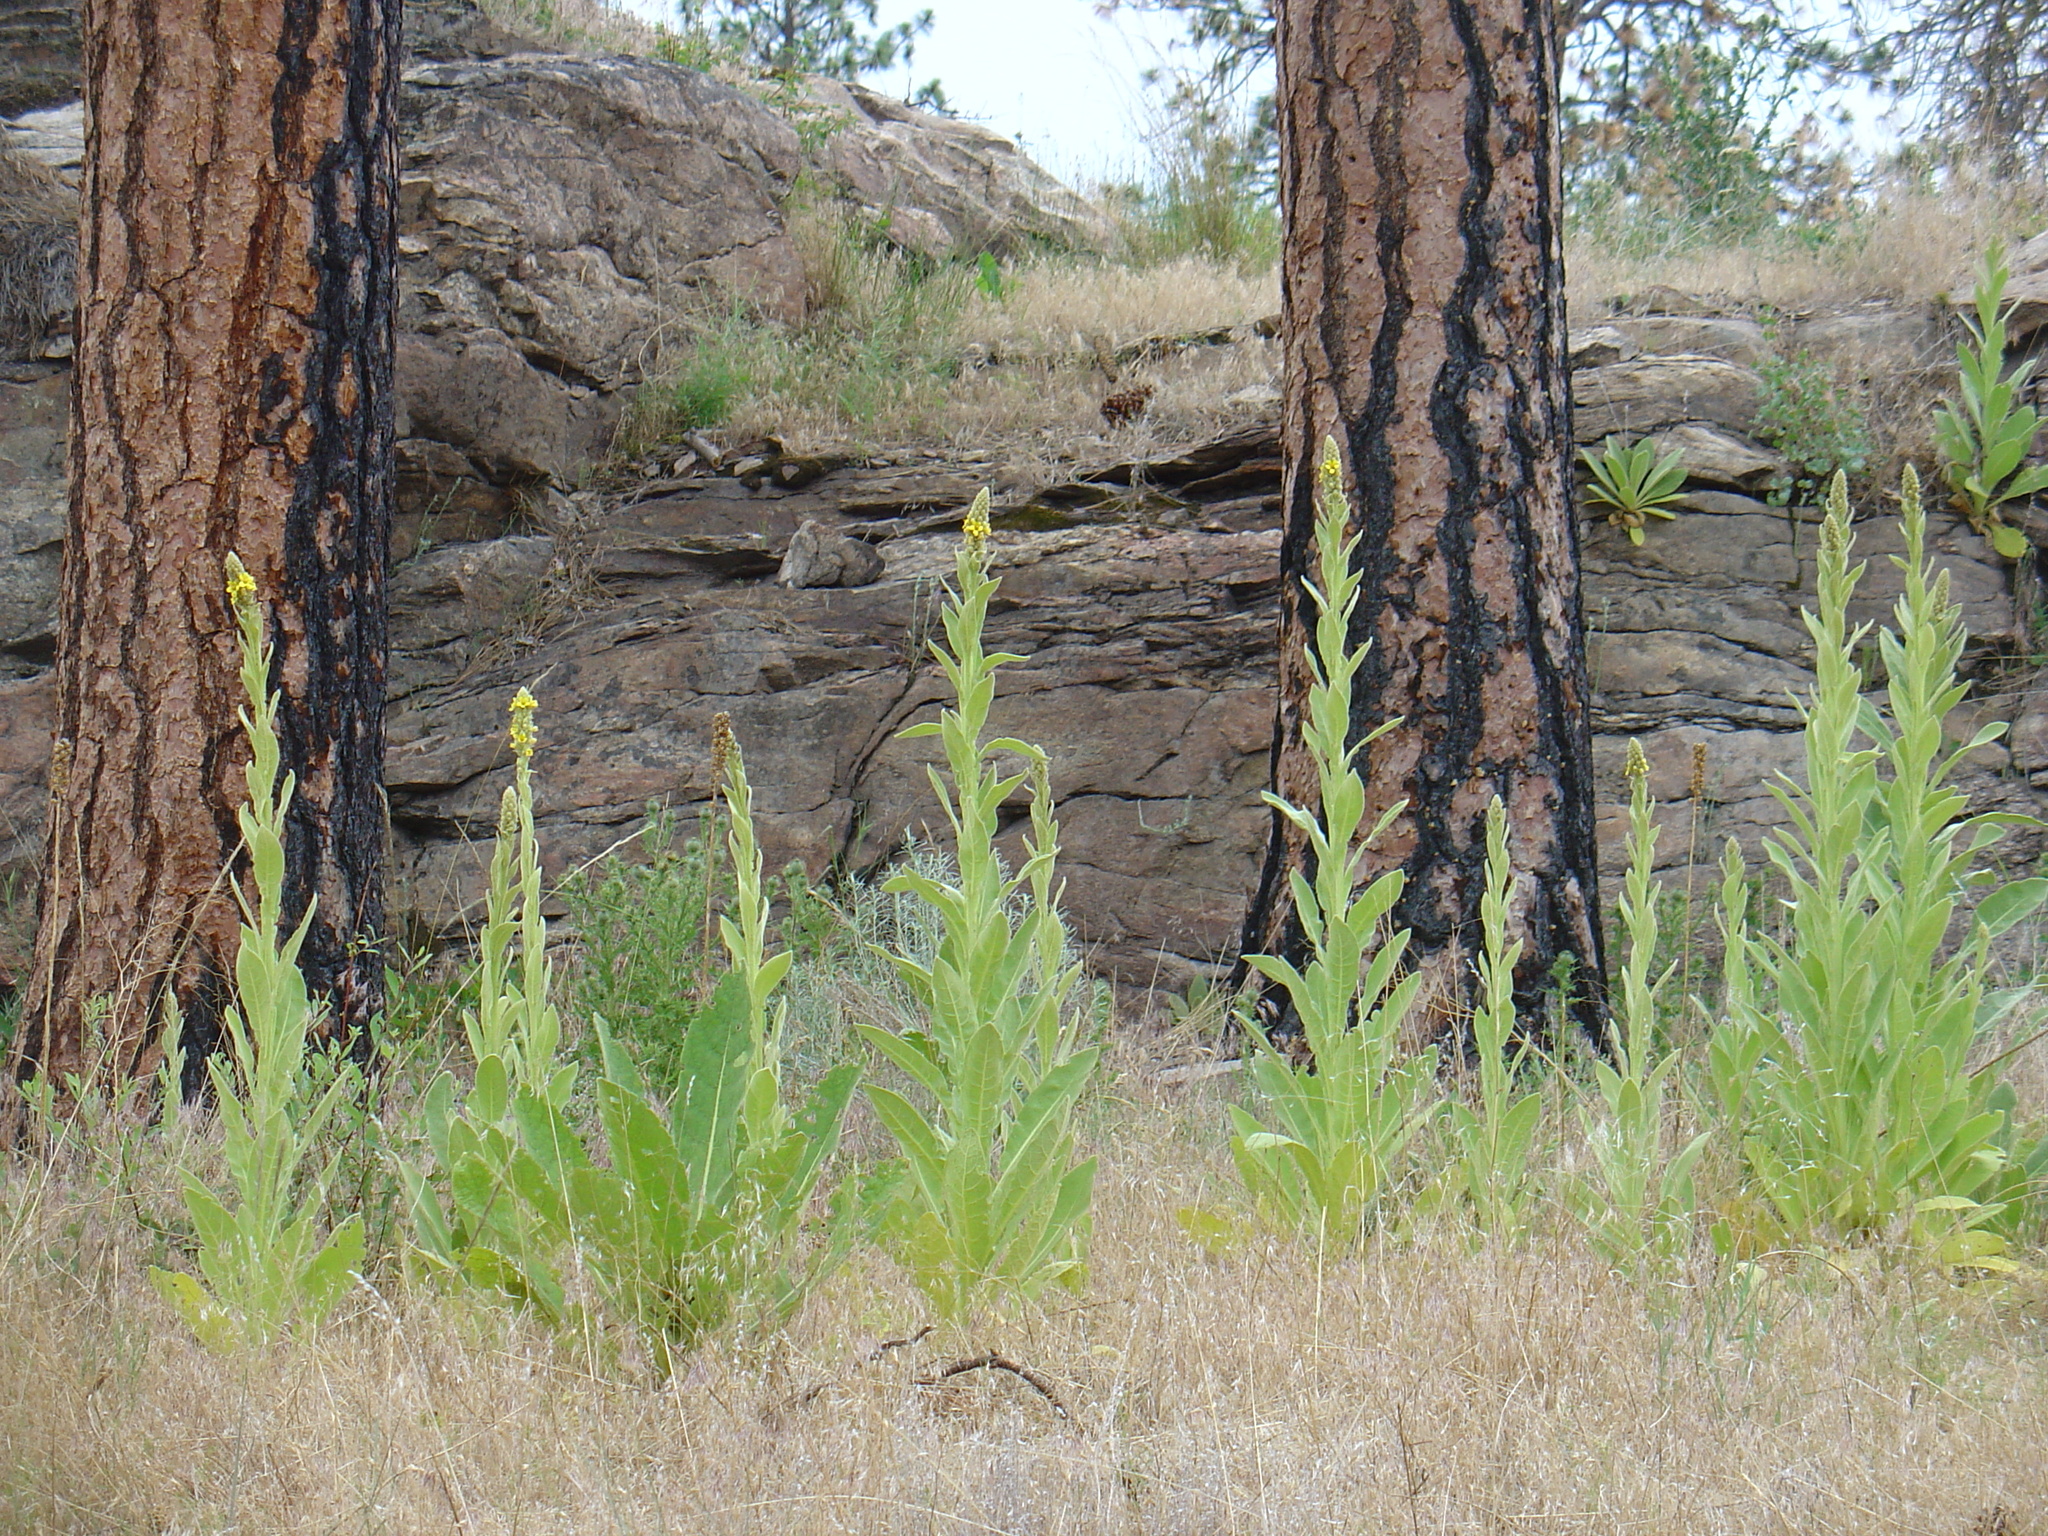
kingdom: Plantae
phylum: Tracheophyta
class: Magnoliopsida
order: Lamiales
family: Scrophulariaceae
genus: Verbascum
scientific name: Verbascum thapsus
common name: Common mullein
